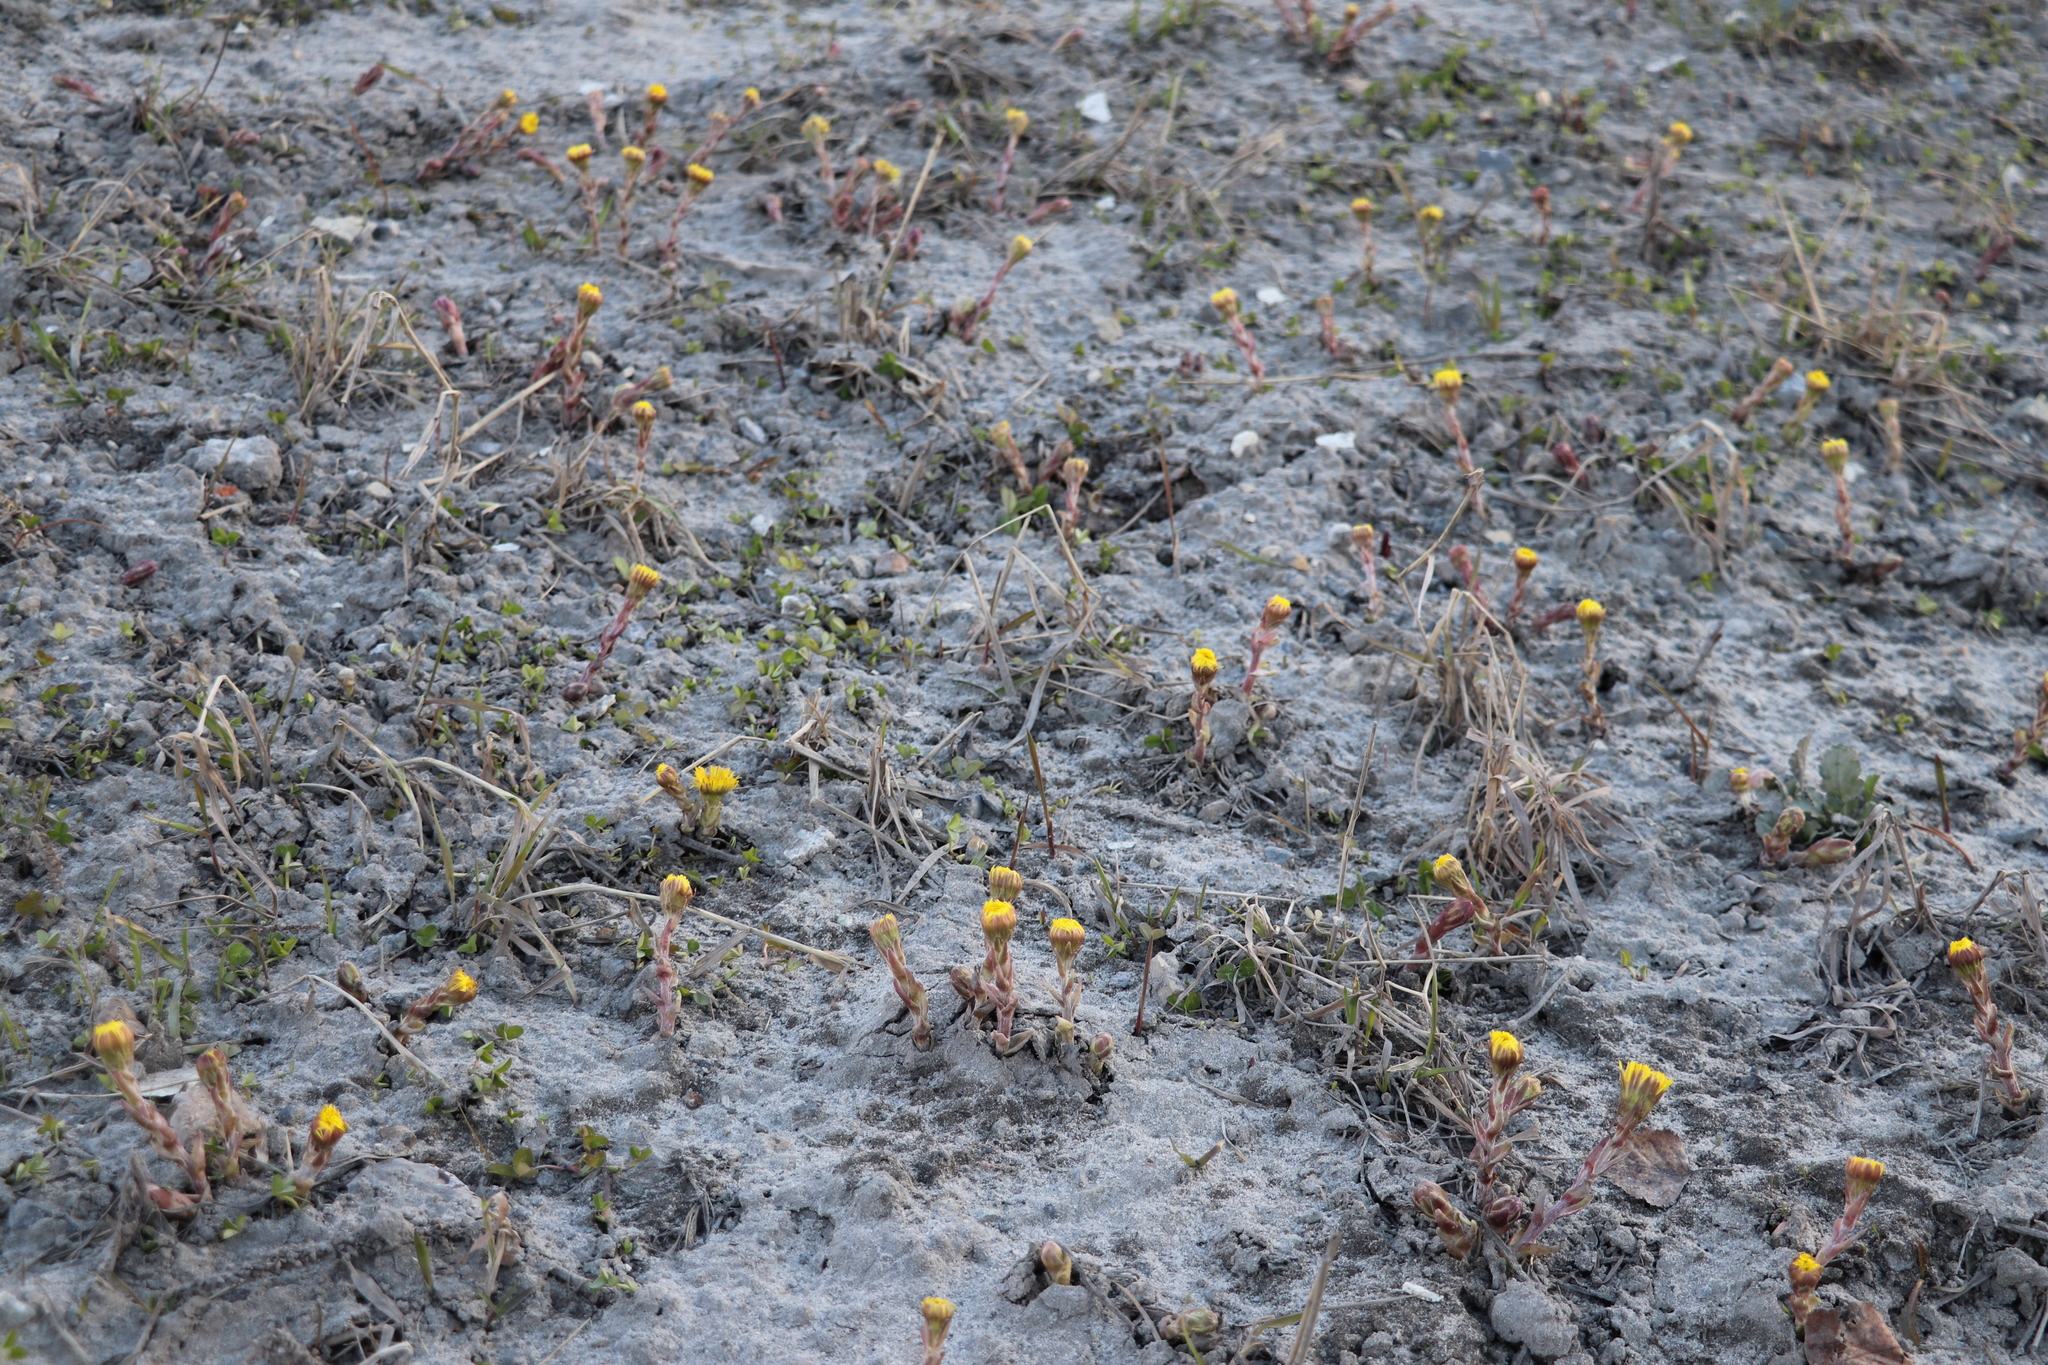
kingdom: Plantae
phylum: Tracheophyta
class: Magnoliopsida
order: Asterales
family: Asteraceae
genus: Tussilago
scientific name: Tussilago farfara
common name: Coltsfoot
